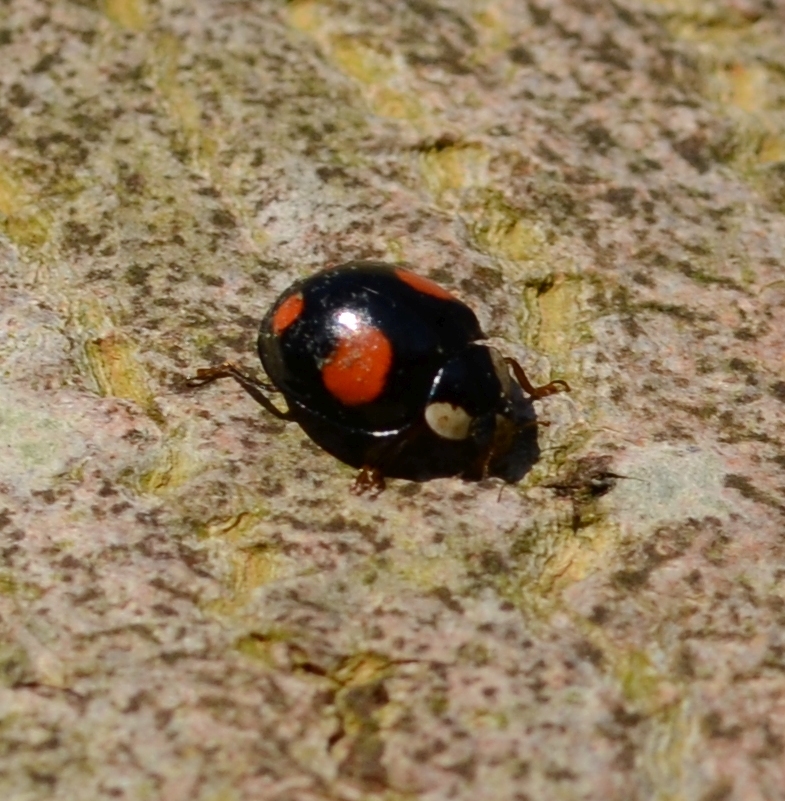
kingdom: Animalia
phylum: Arthropoda
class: Insecta
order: Coleoptera
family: Coccinellidae
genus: Harmonia
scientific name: Harmonia axyridis
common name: Harlequin ladybird
